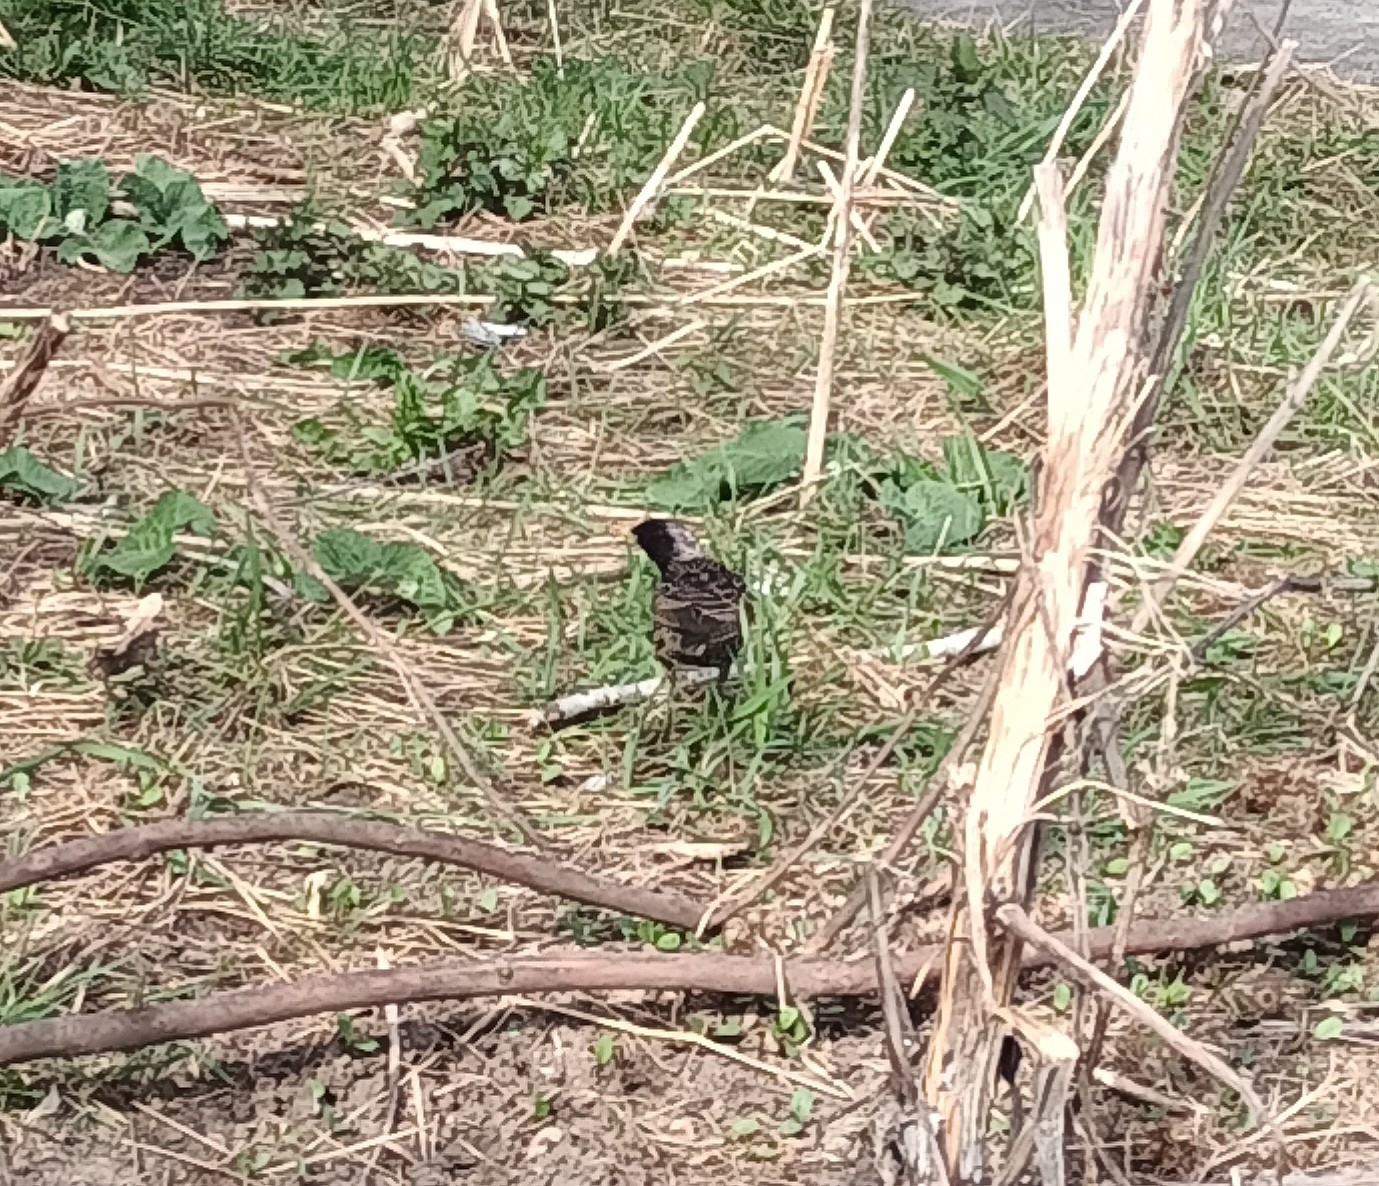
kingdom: Animalia
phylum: Chordata
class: Aves
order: Passeriformes
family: Sturnidae
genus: Sturnus
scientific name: Sturnus vulgaris
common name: Common starling
